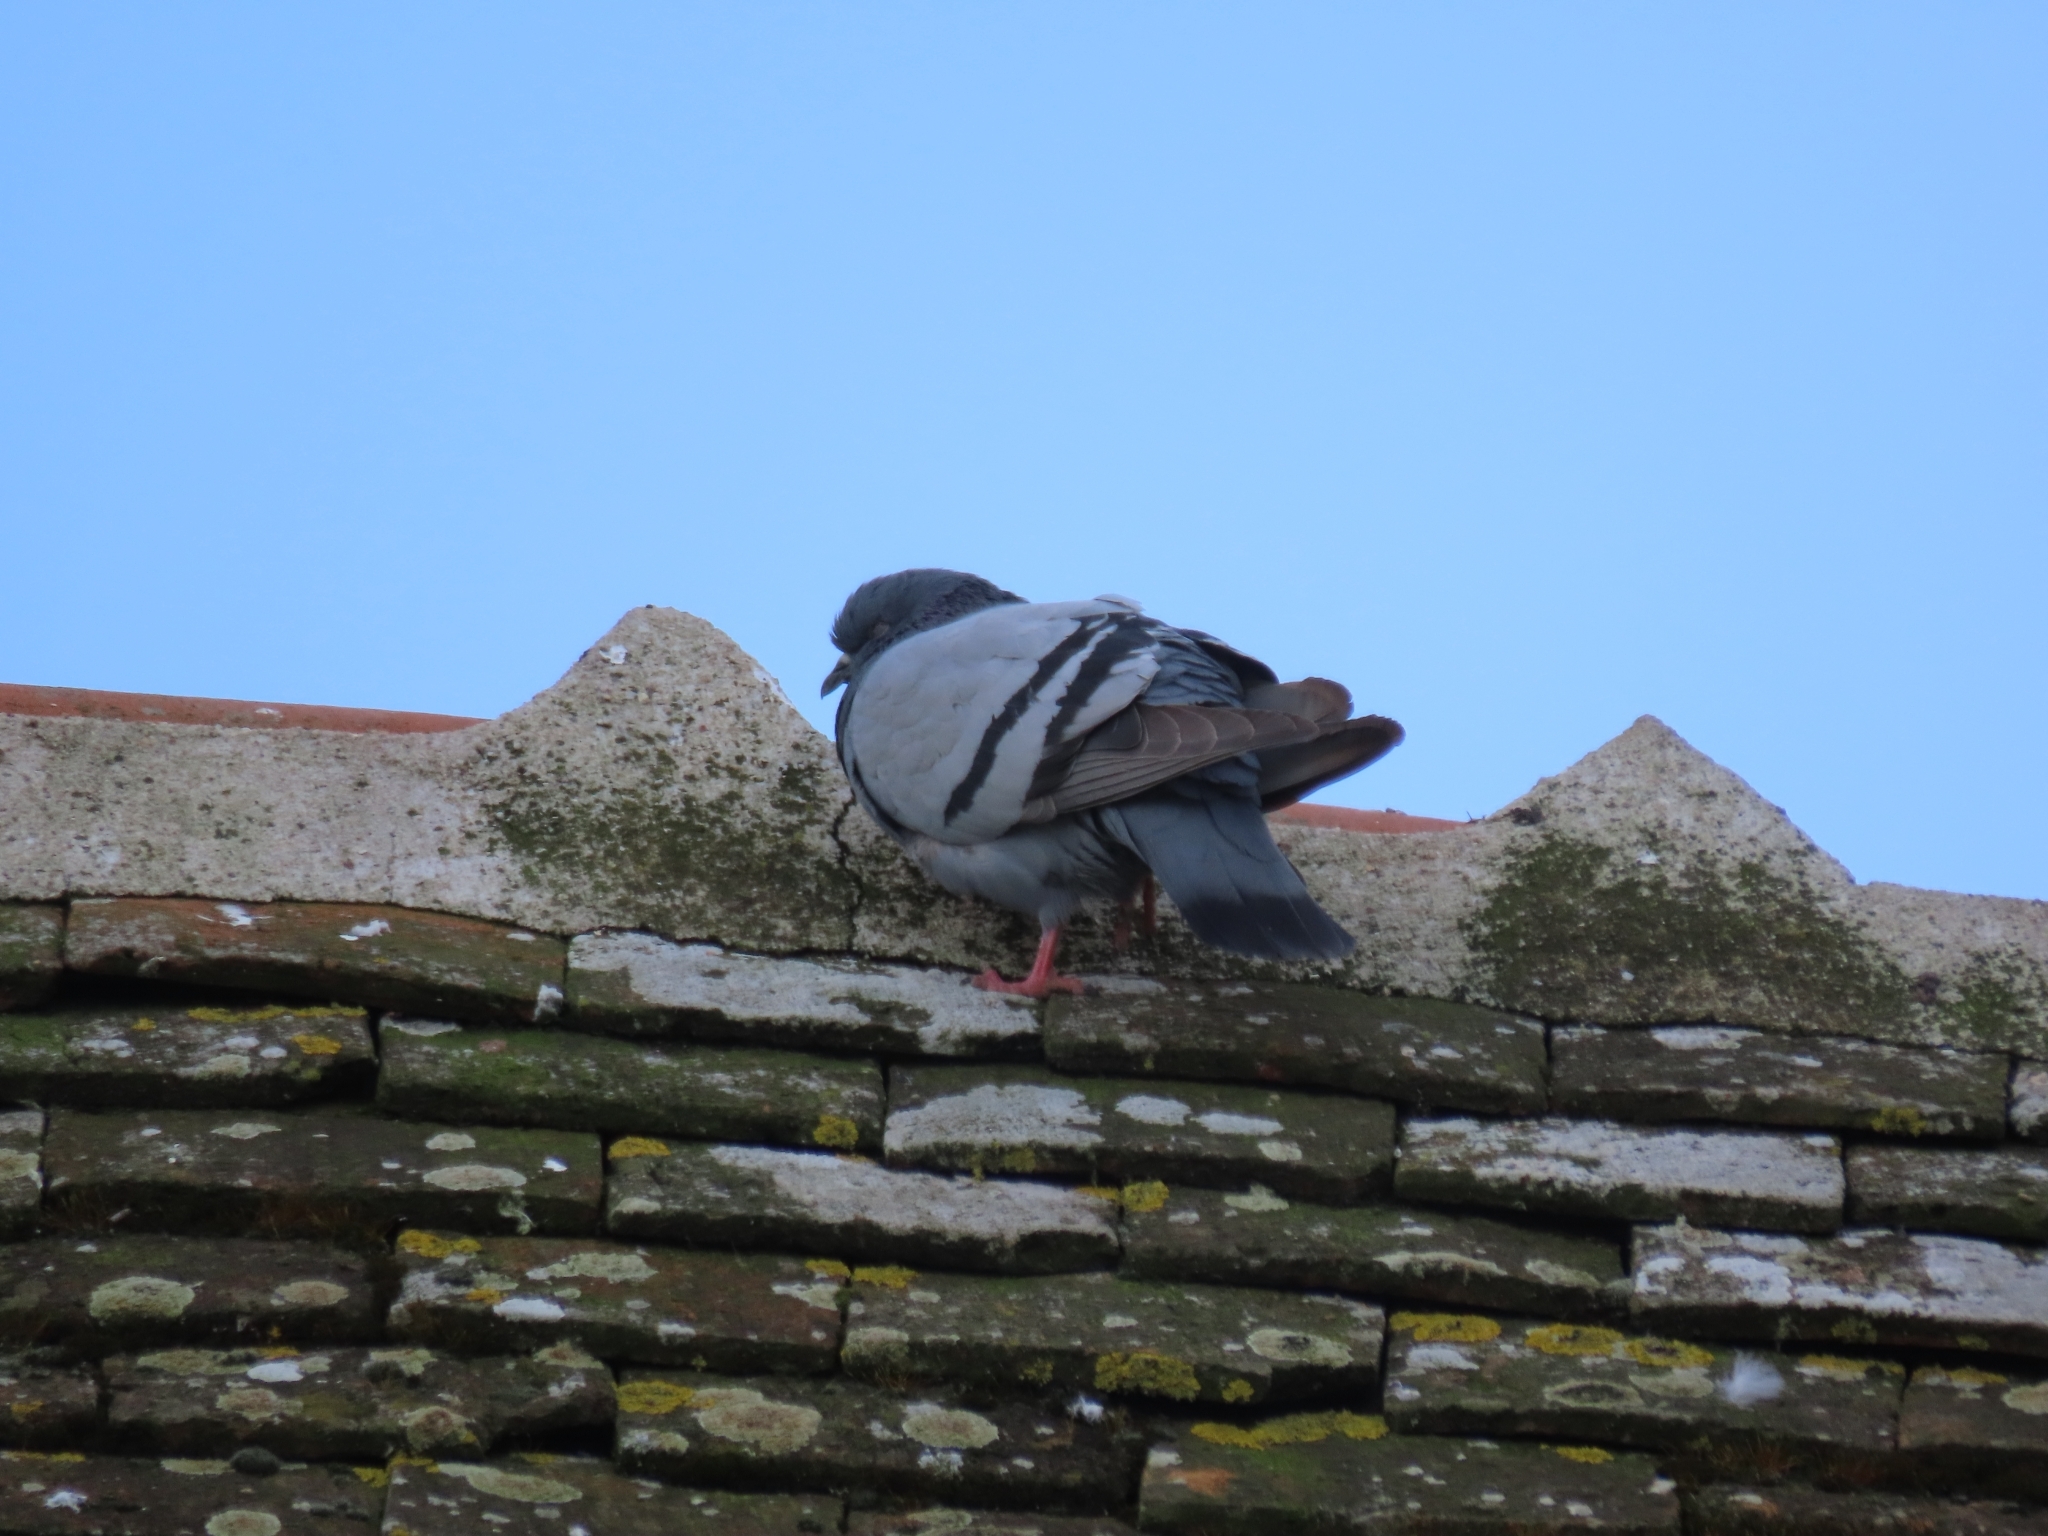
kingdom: Animalia
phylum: Chordata
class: Aves
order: Columbiformes
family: Columbidae
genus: Columba
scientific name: Columba livia
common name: Rock pigeon
